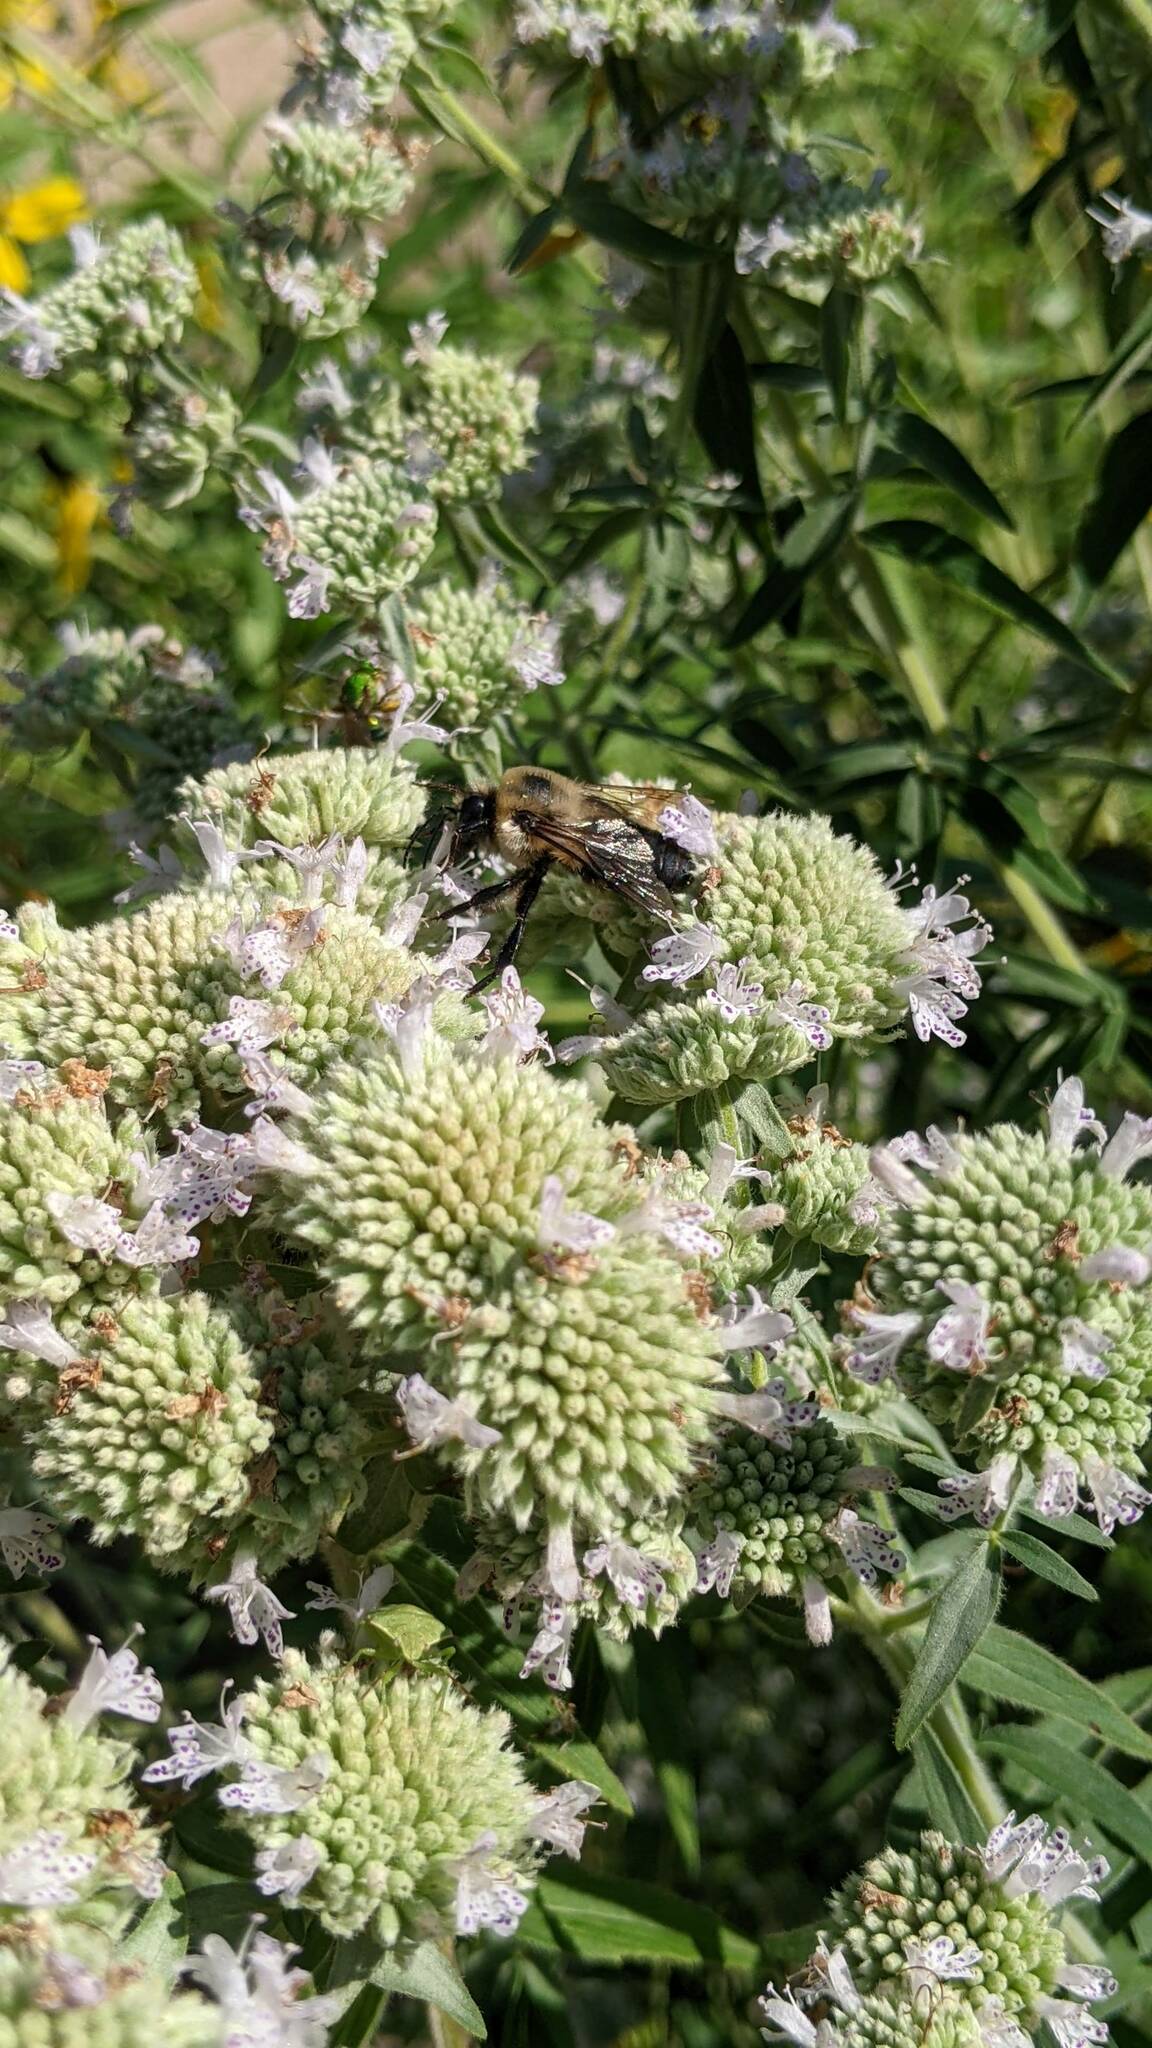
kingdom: Animalia
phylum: Arthropoda
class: Insecta
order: Hymenoptera
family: Apidae
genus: Bombus
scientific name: Bombus griseocollis
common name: Brown-belted bumble bee
